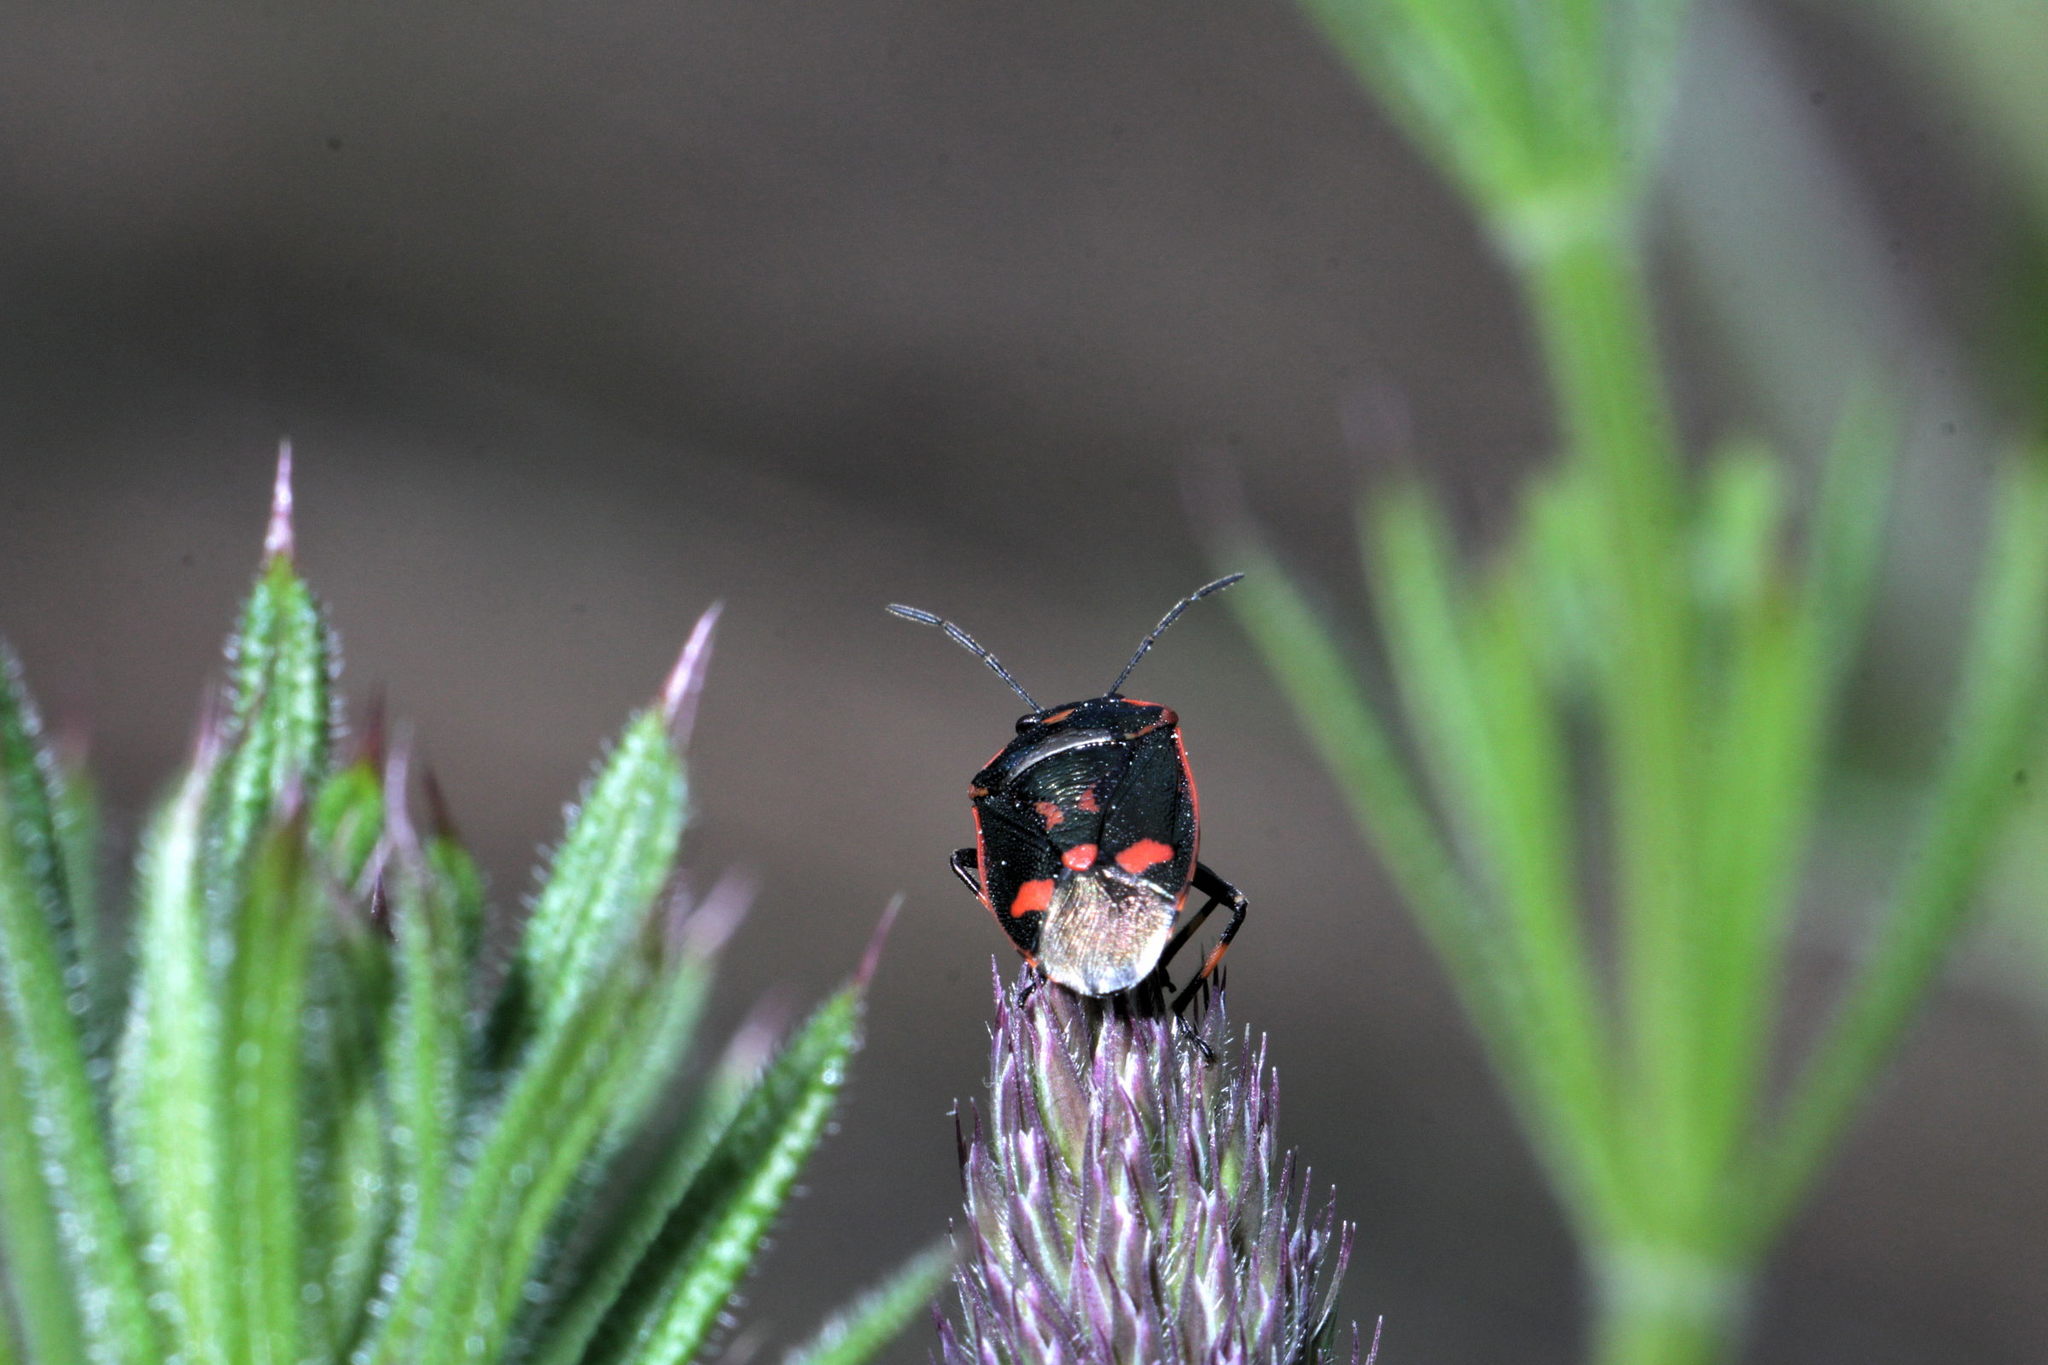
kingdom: Animalia
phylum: Arthropoda
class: Insecta
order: Hemiptera
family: Pentatomidae
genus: Eurydema
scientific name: Eurydema oleracea
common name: Cabbage bug
